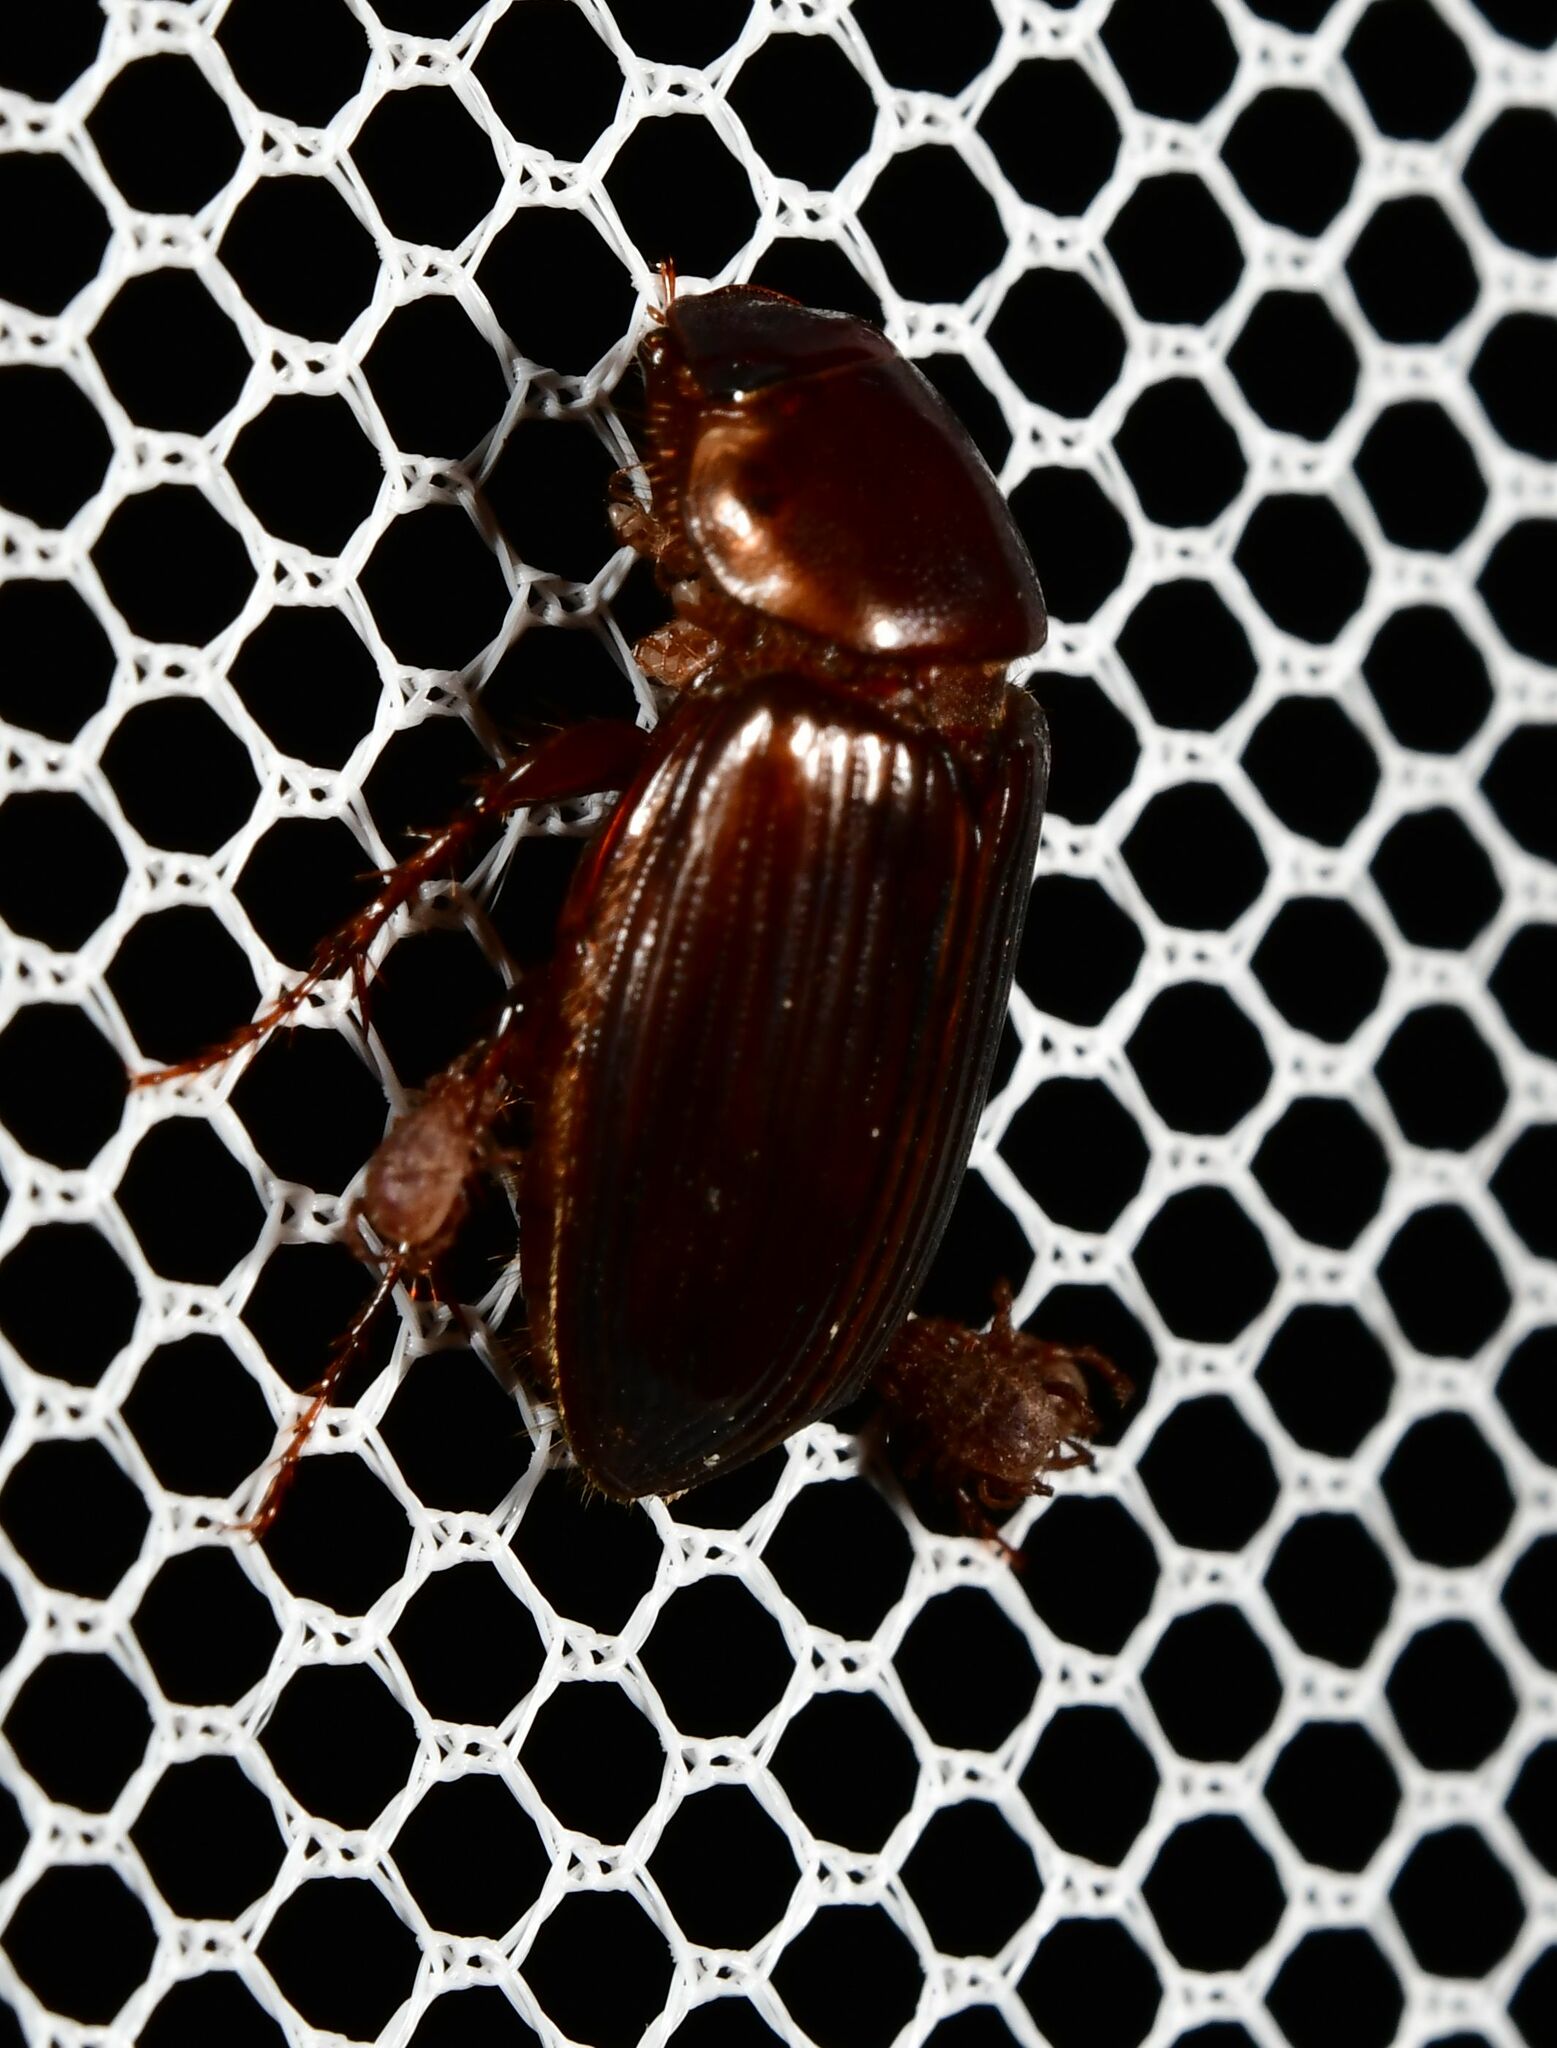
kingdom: Animalia
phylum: Arthropoda
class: Insecta
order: Coleoptera
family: Scarabaeidae
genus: Acrossidius
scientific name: Acrossidius tasmaniae
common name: Black-headed pasture cockchafer
